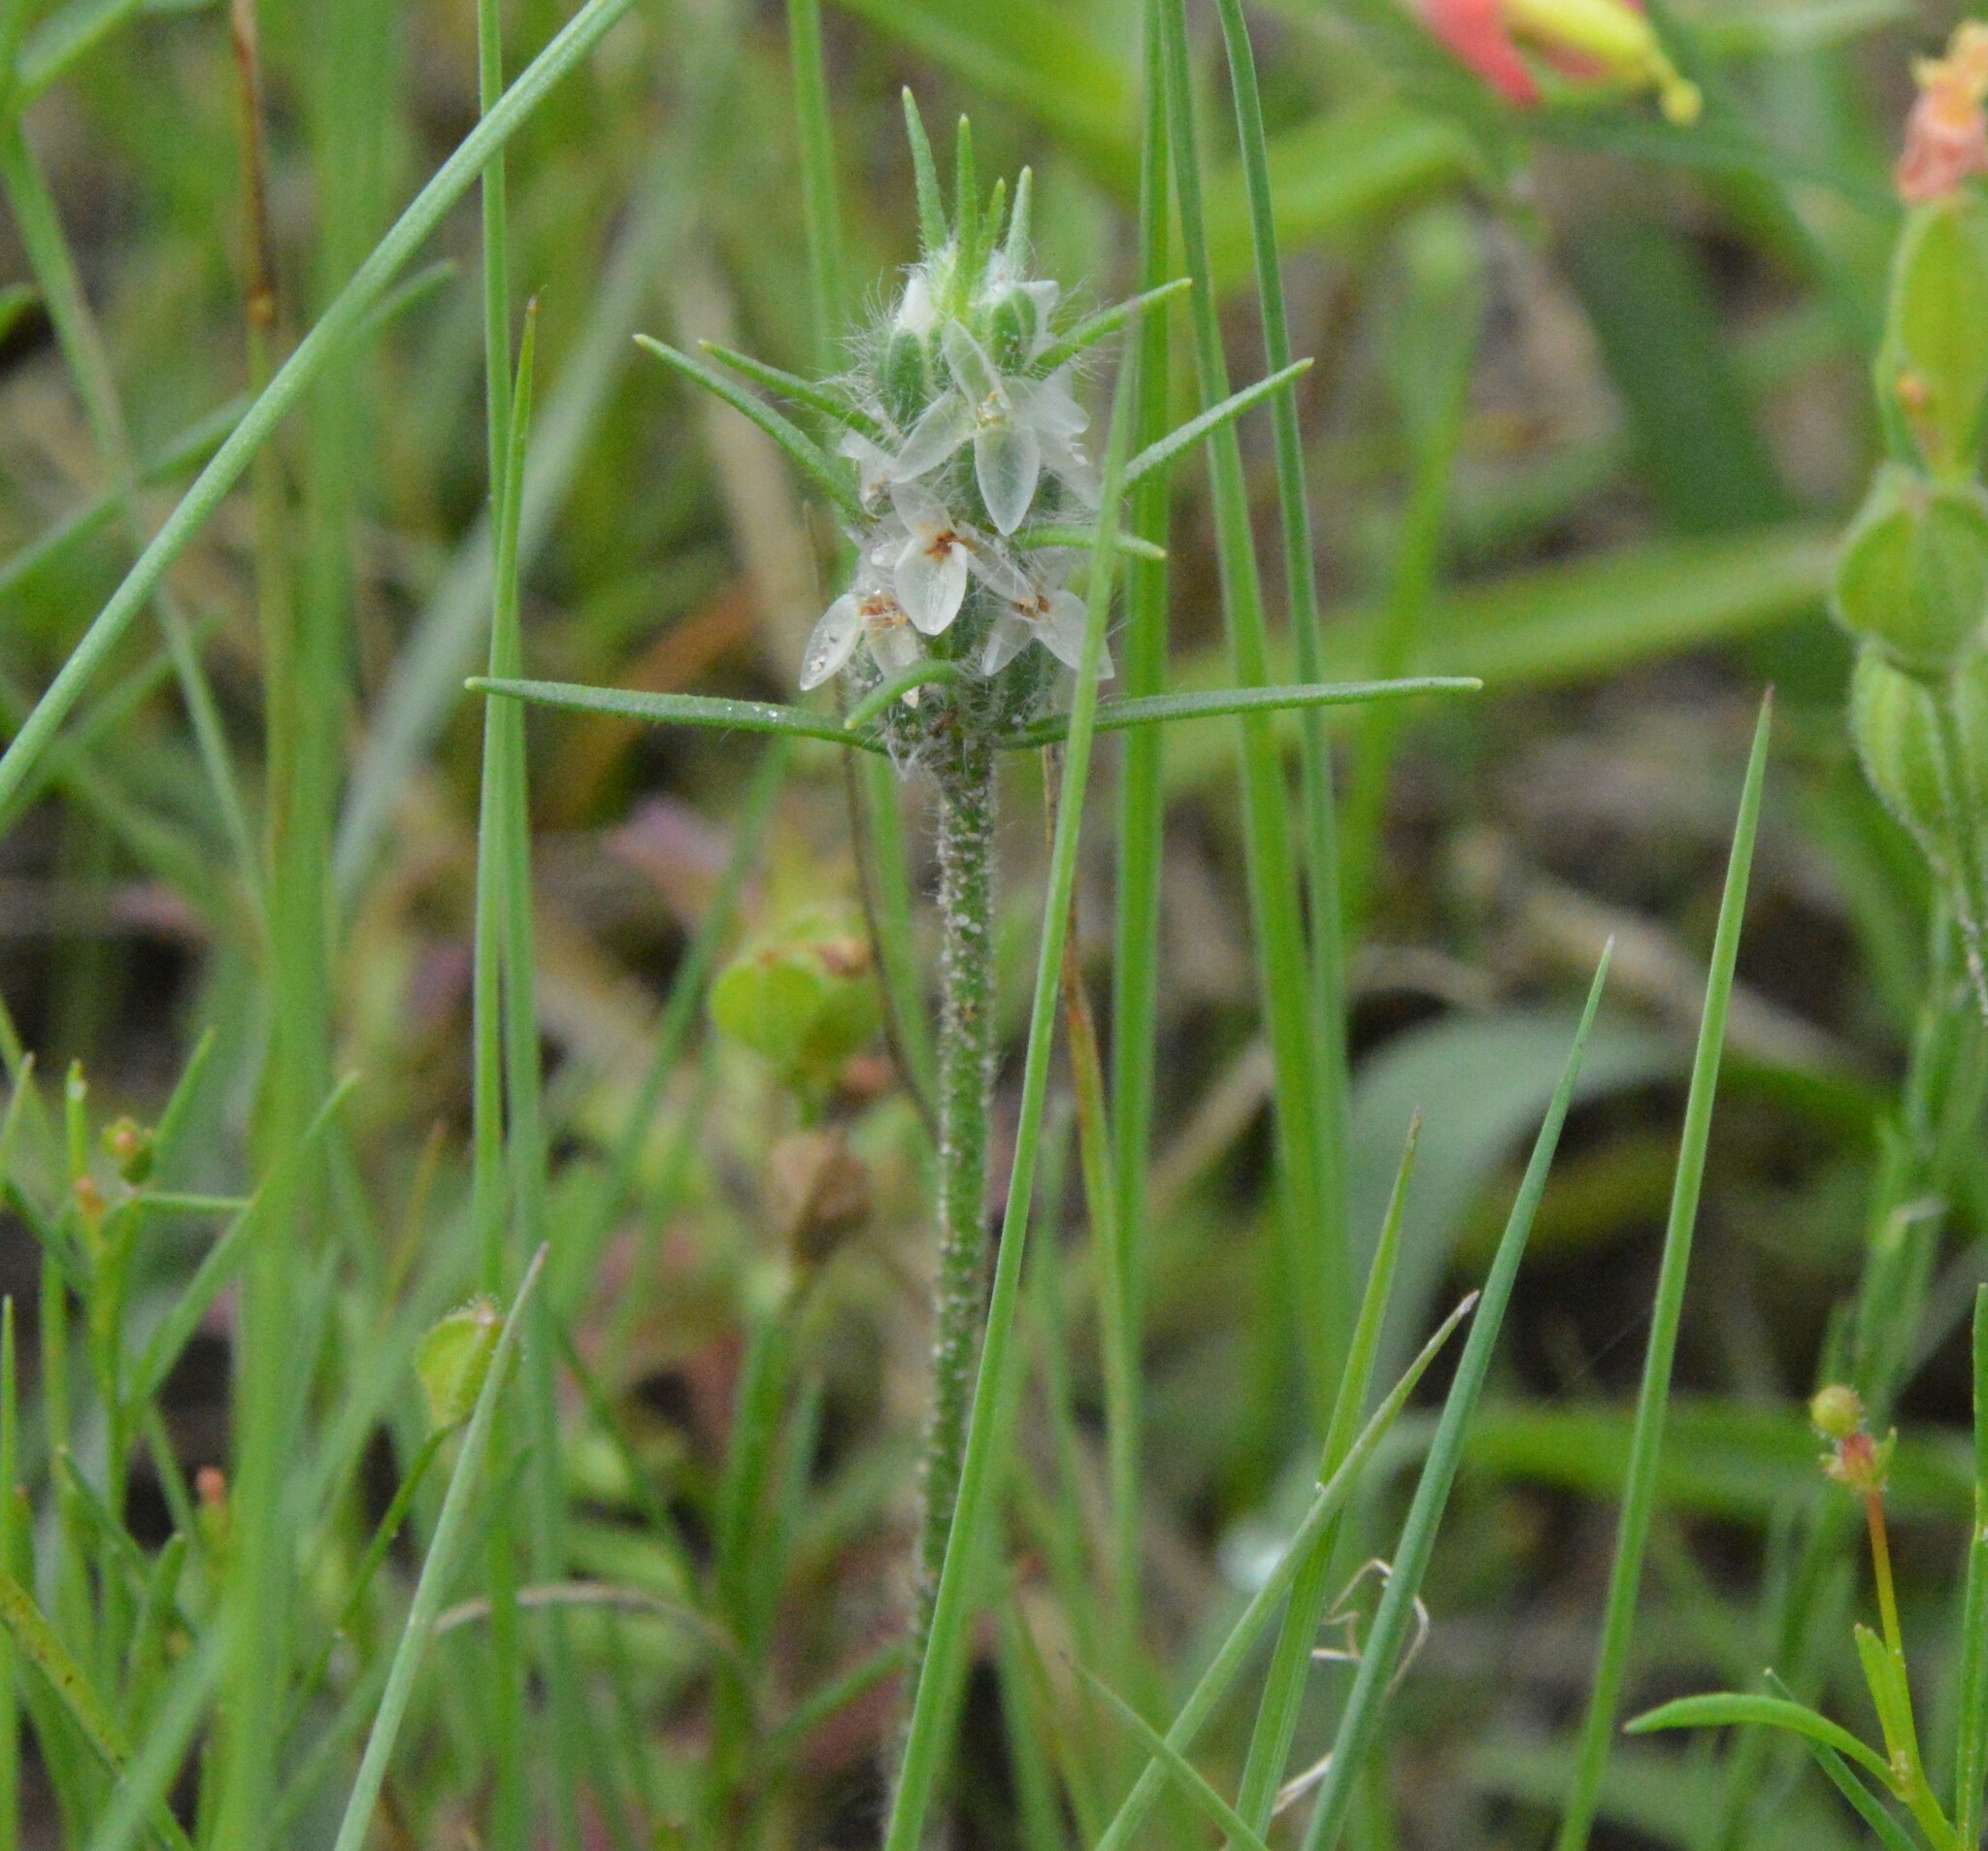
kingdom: Plantae
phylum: Tracheophyta
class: Magnoliopsida
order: Lamiales
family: Plantaginaceae
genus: Plantago
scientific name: Plantago aristata
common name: Bracted plantain
